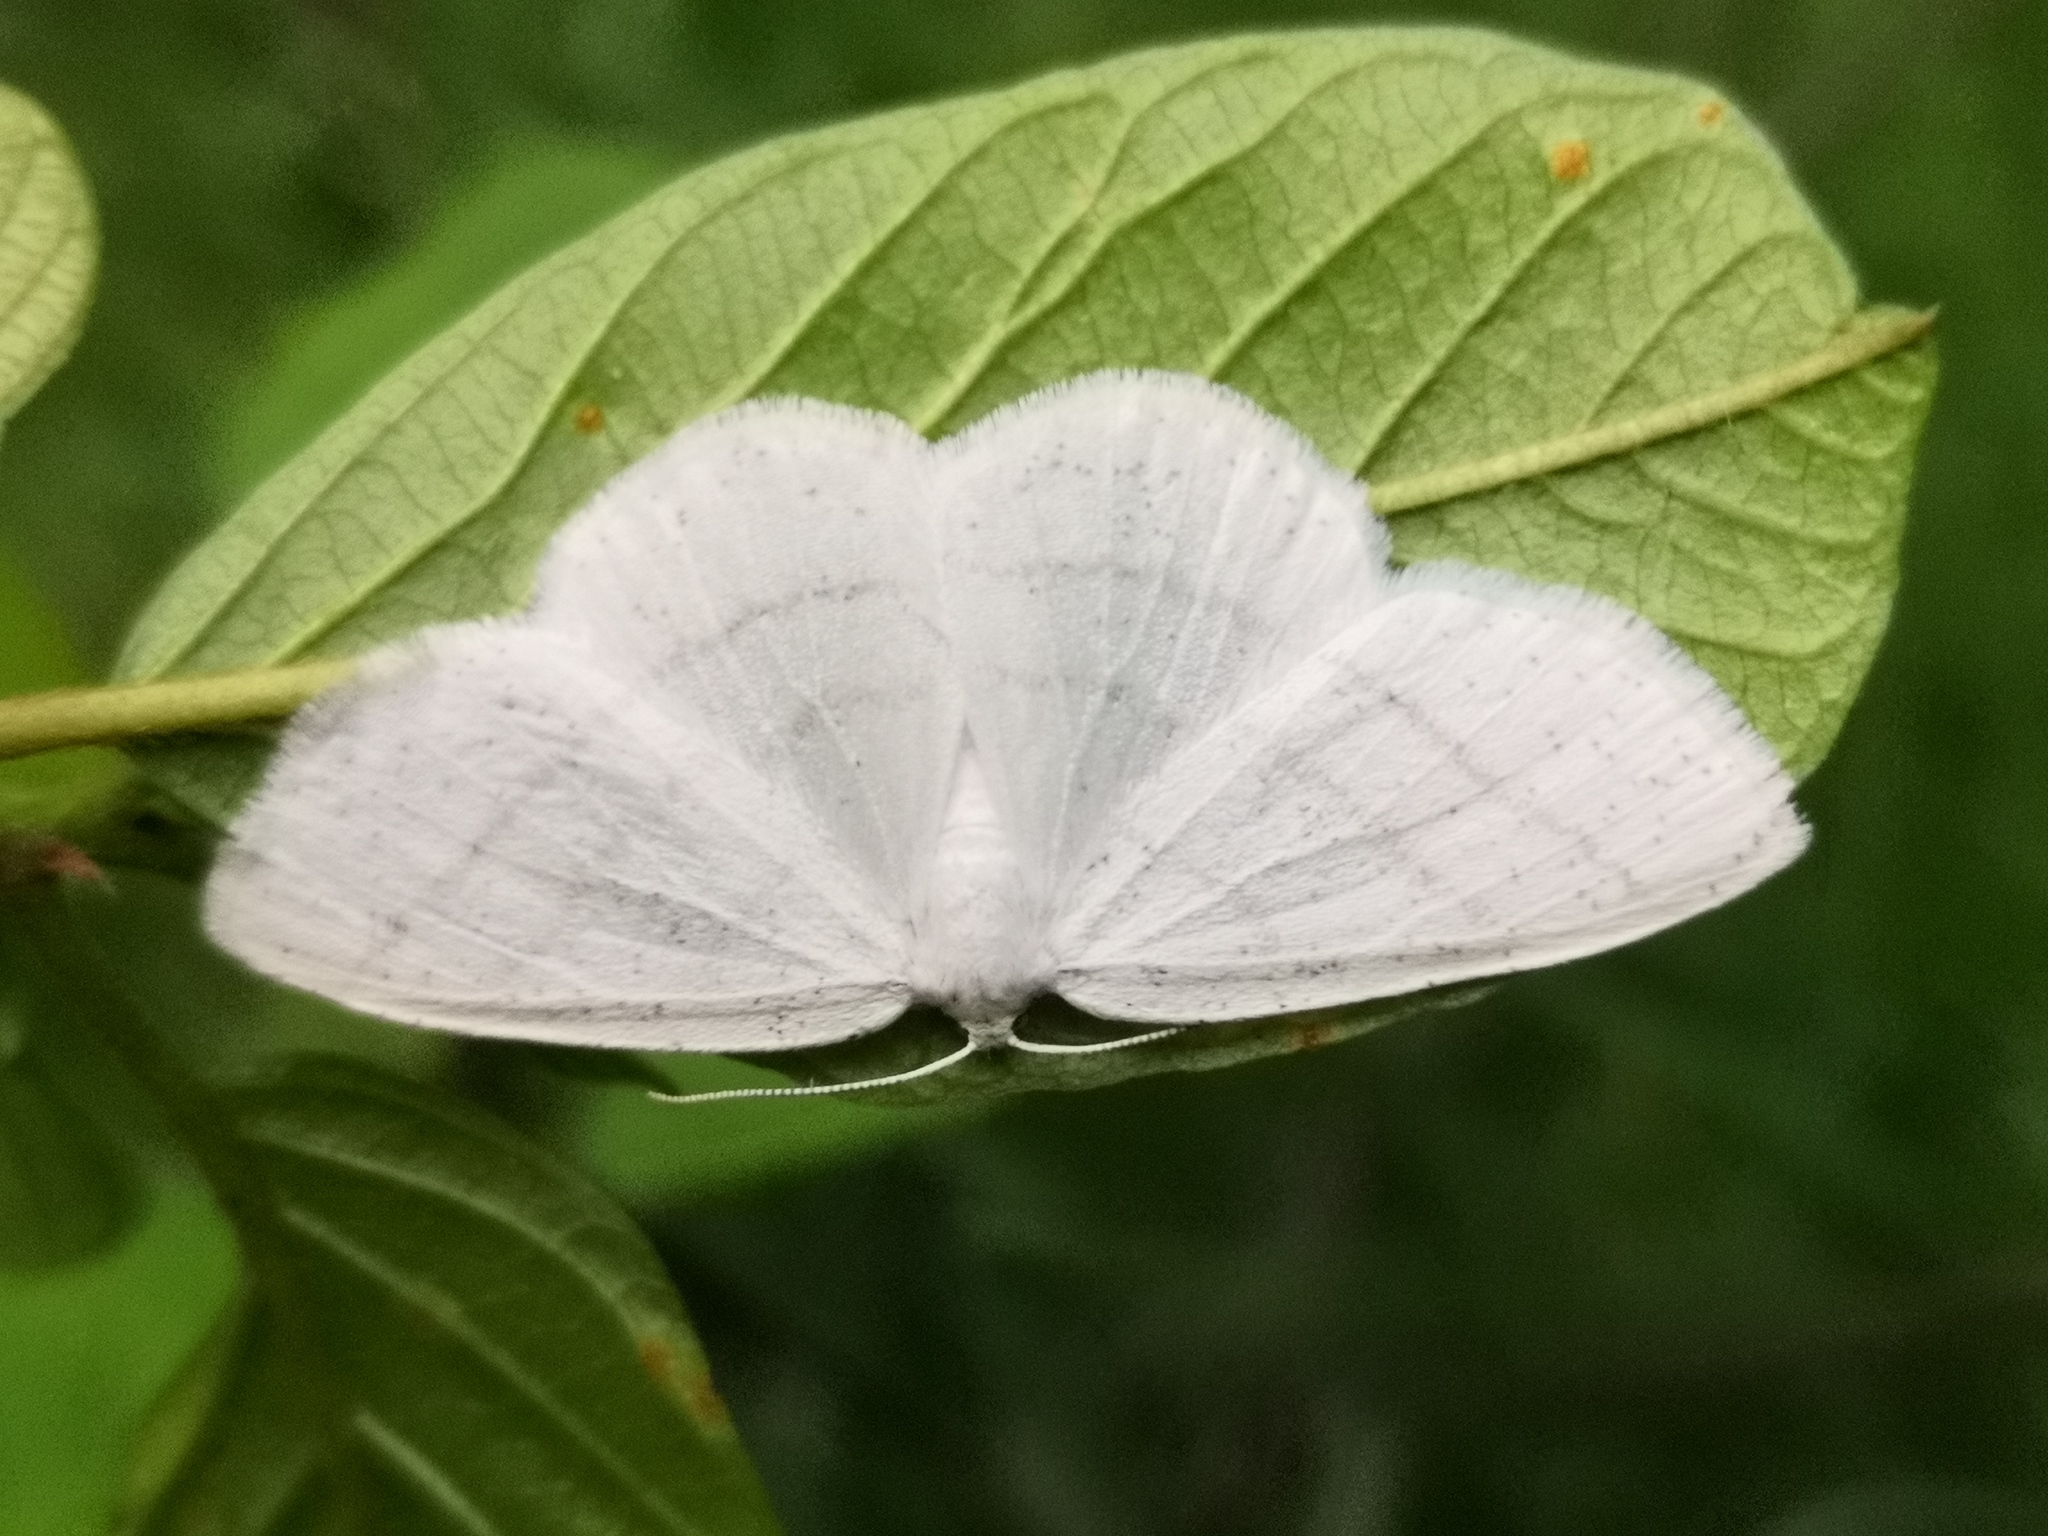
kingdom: Animalia
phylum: Arthropoda
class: Insecta
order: Lepidoptera
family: Geometridae
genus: Cabera
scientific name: Cabera pusaria
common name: Common white wave
